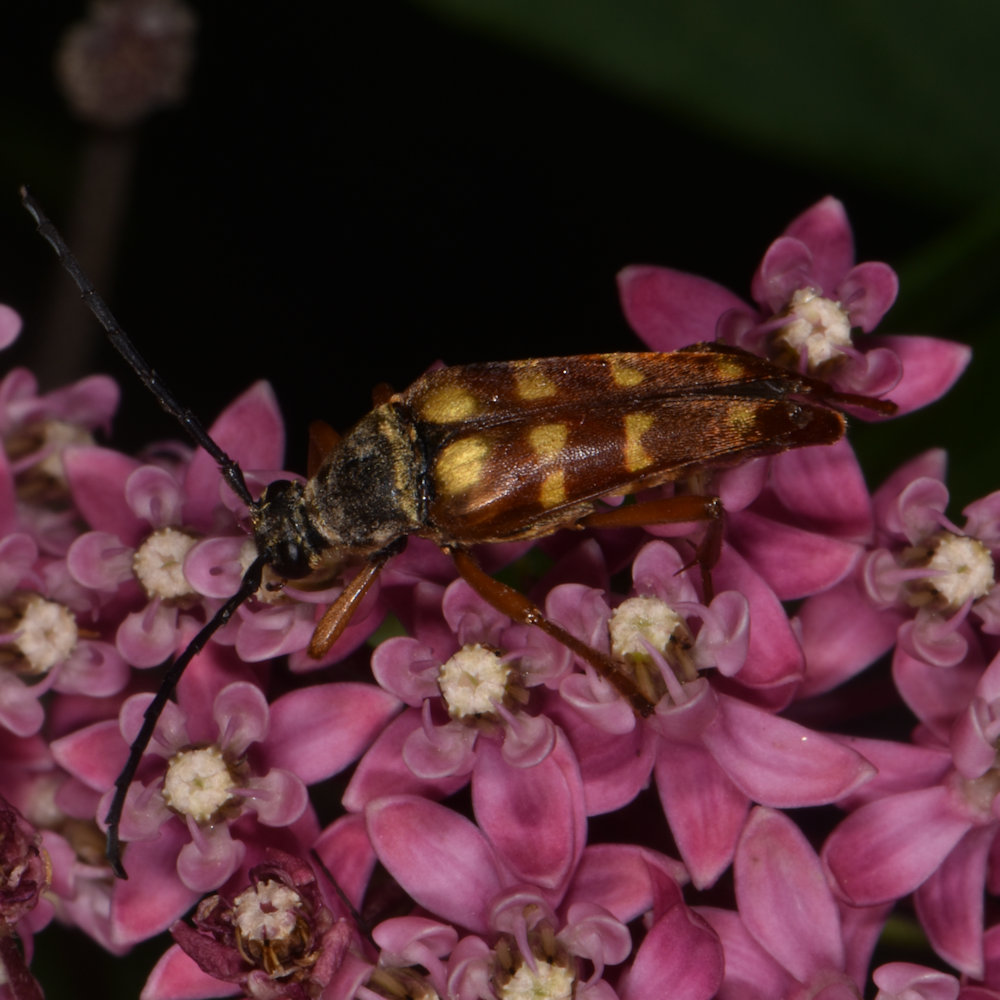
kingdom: Animalia
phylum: Arthropoda
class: Insecta
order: Coleoptera
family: Cerambycidae
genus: Typocerus
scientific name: Typocerus velutinus
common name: Banded longhorn beetle
